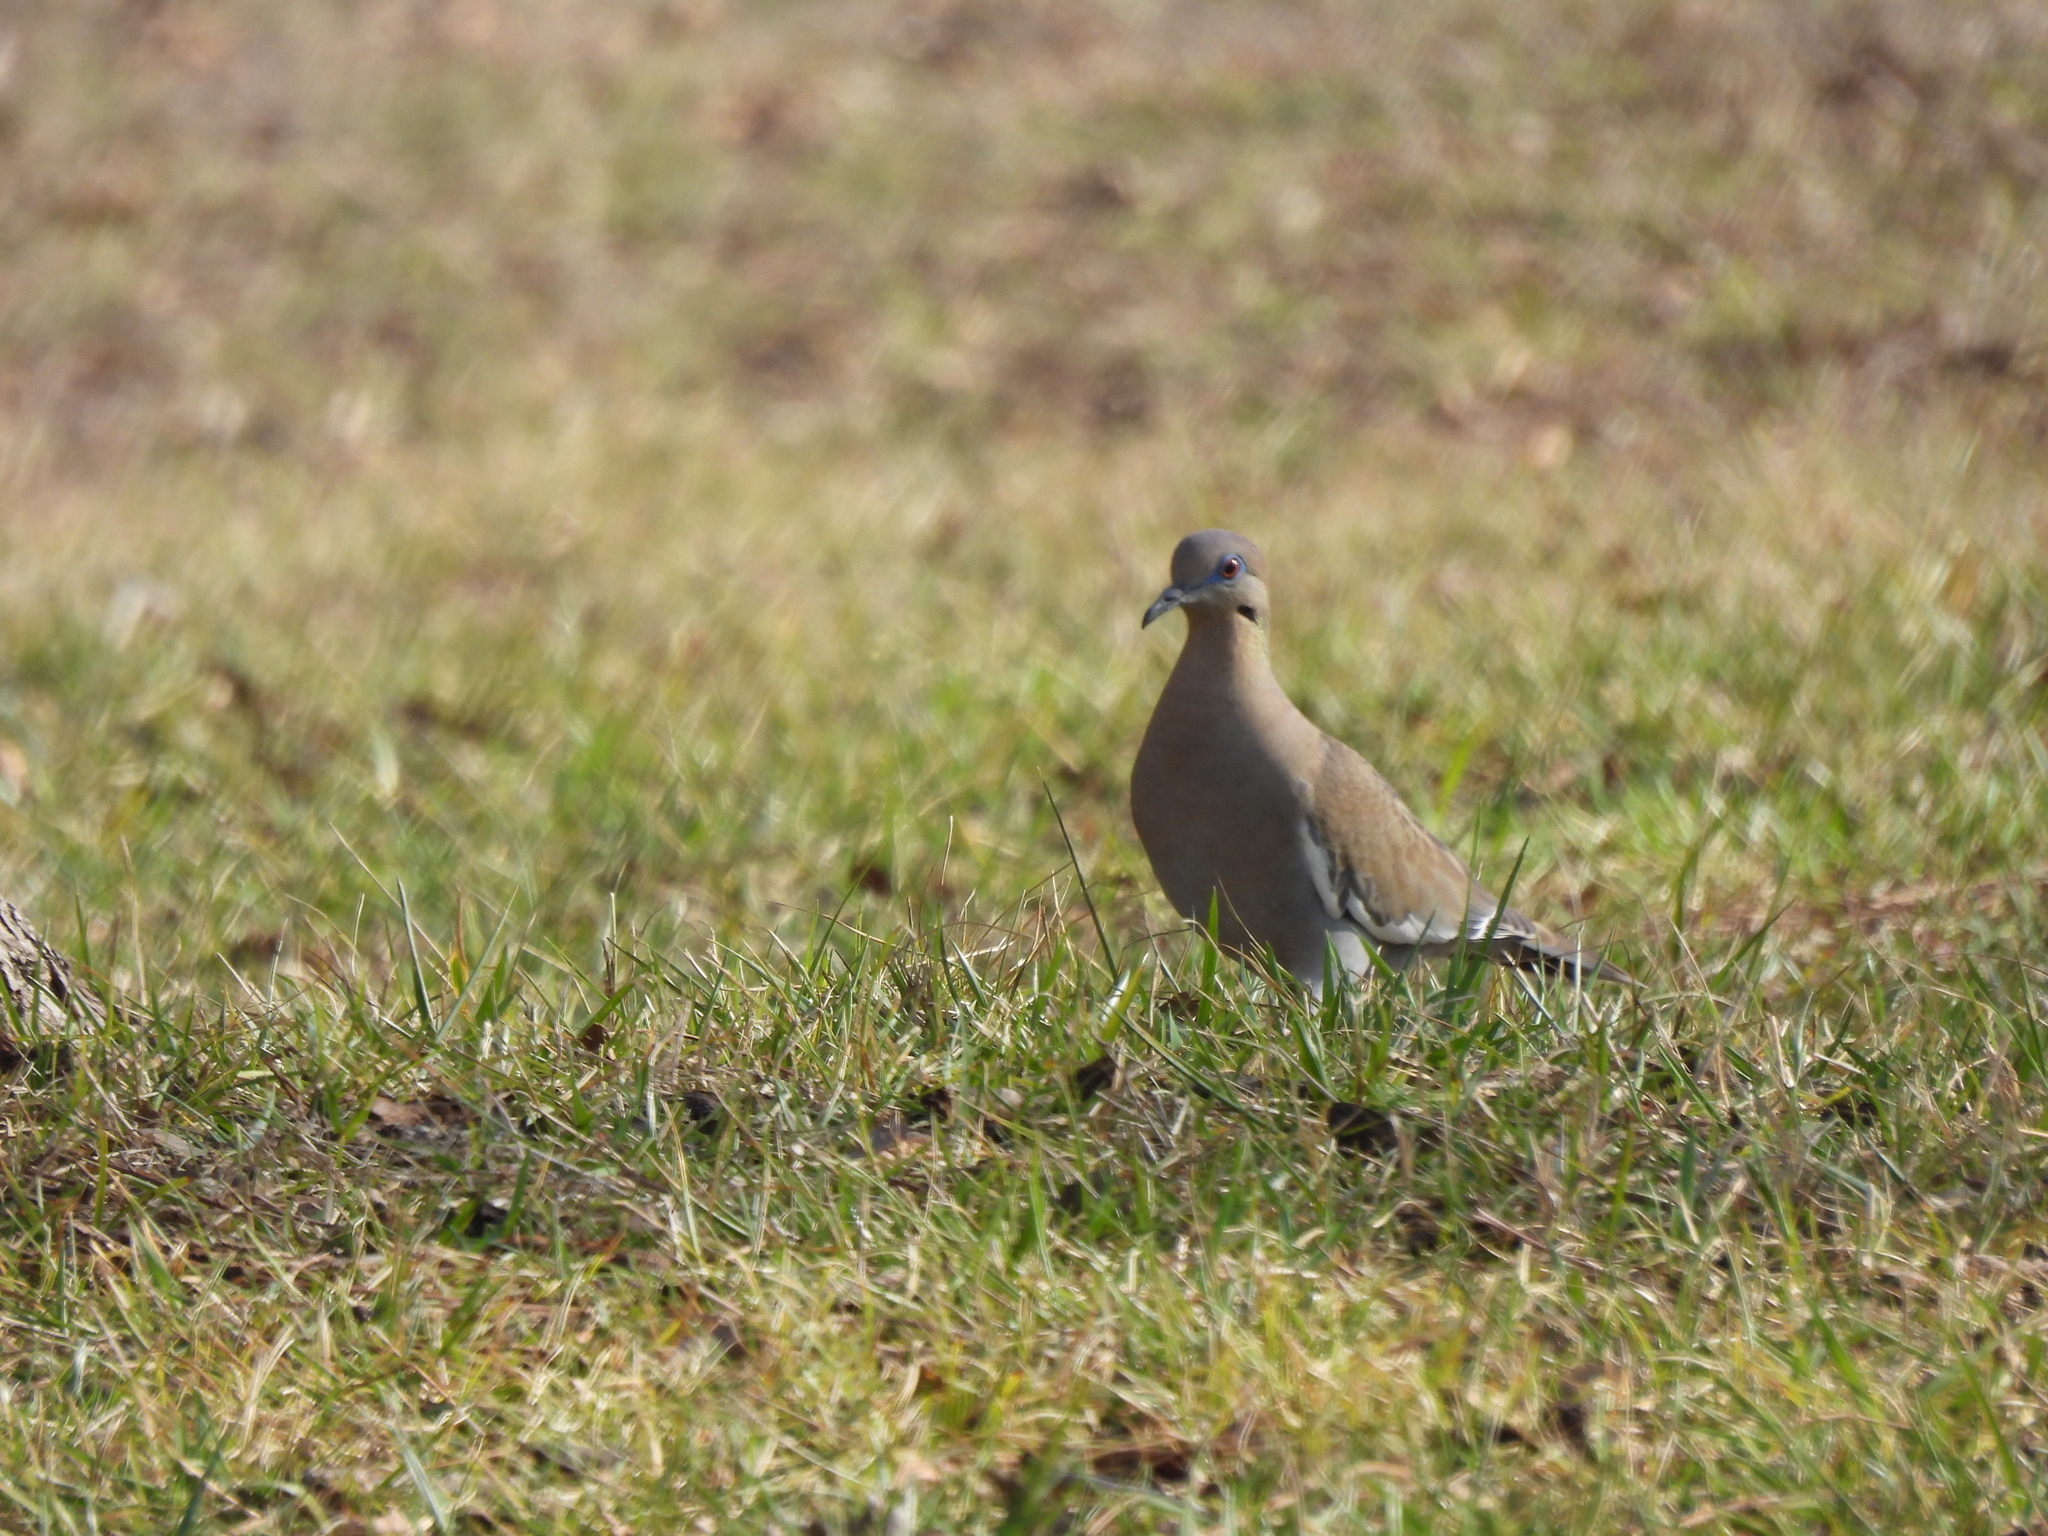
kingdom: Animalia
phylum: Chordata
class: Aves
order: Columbiformes
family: Columbidae
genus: Zenaida
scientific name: Zenaida asiatica
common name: White-winged dove
